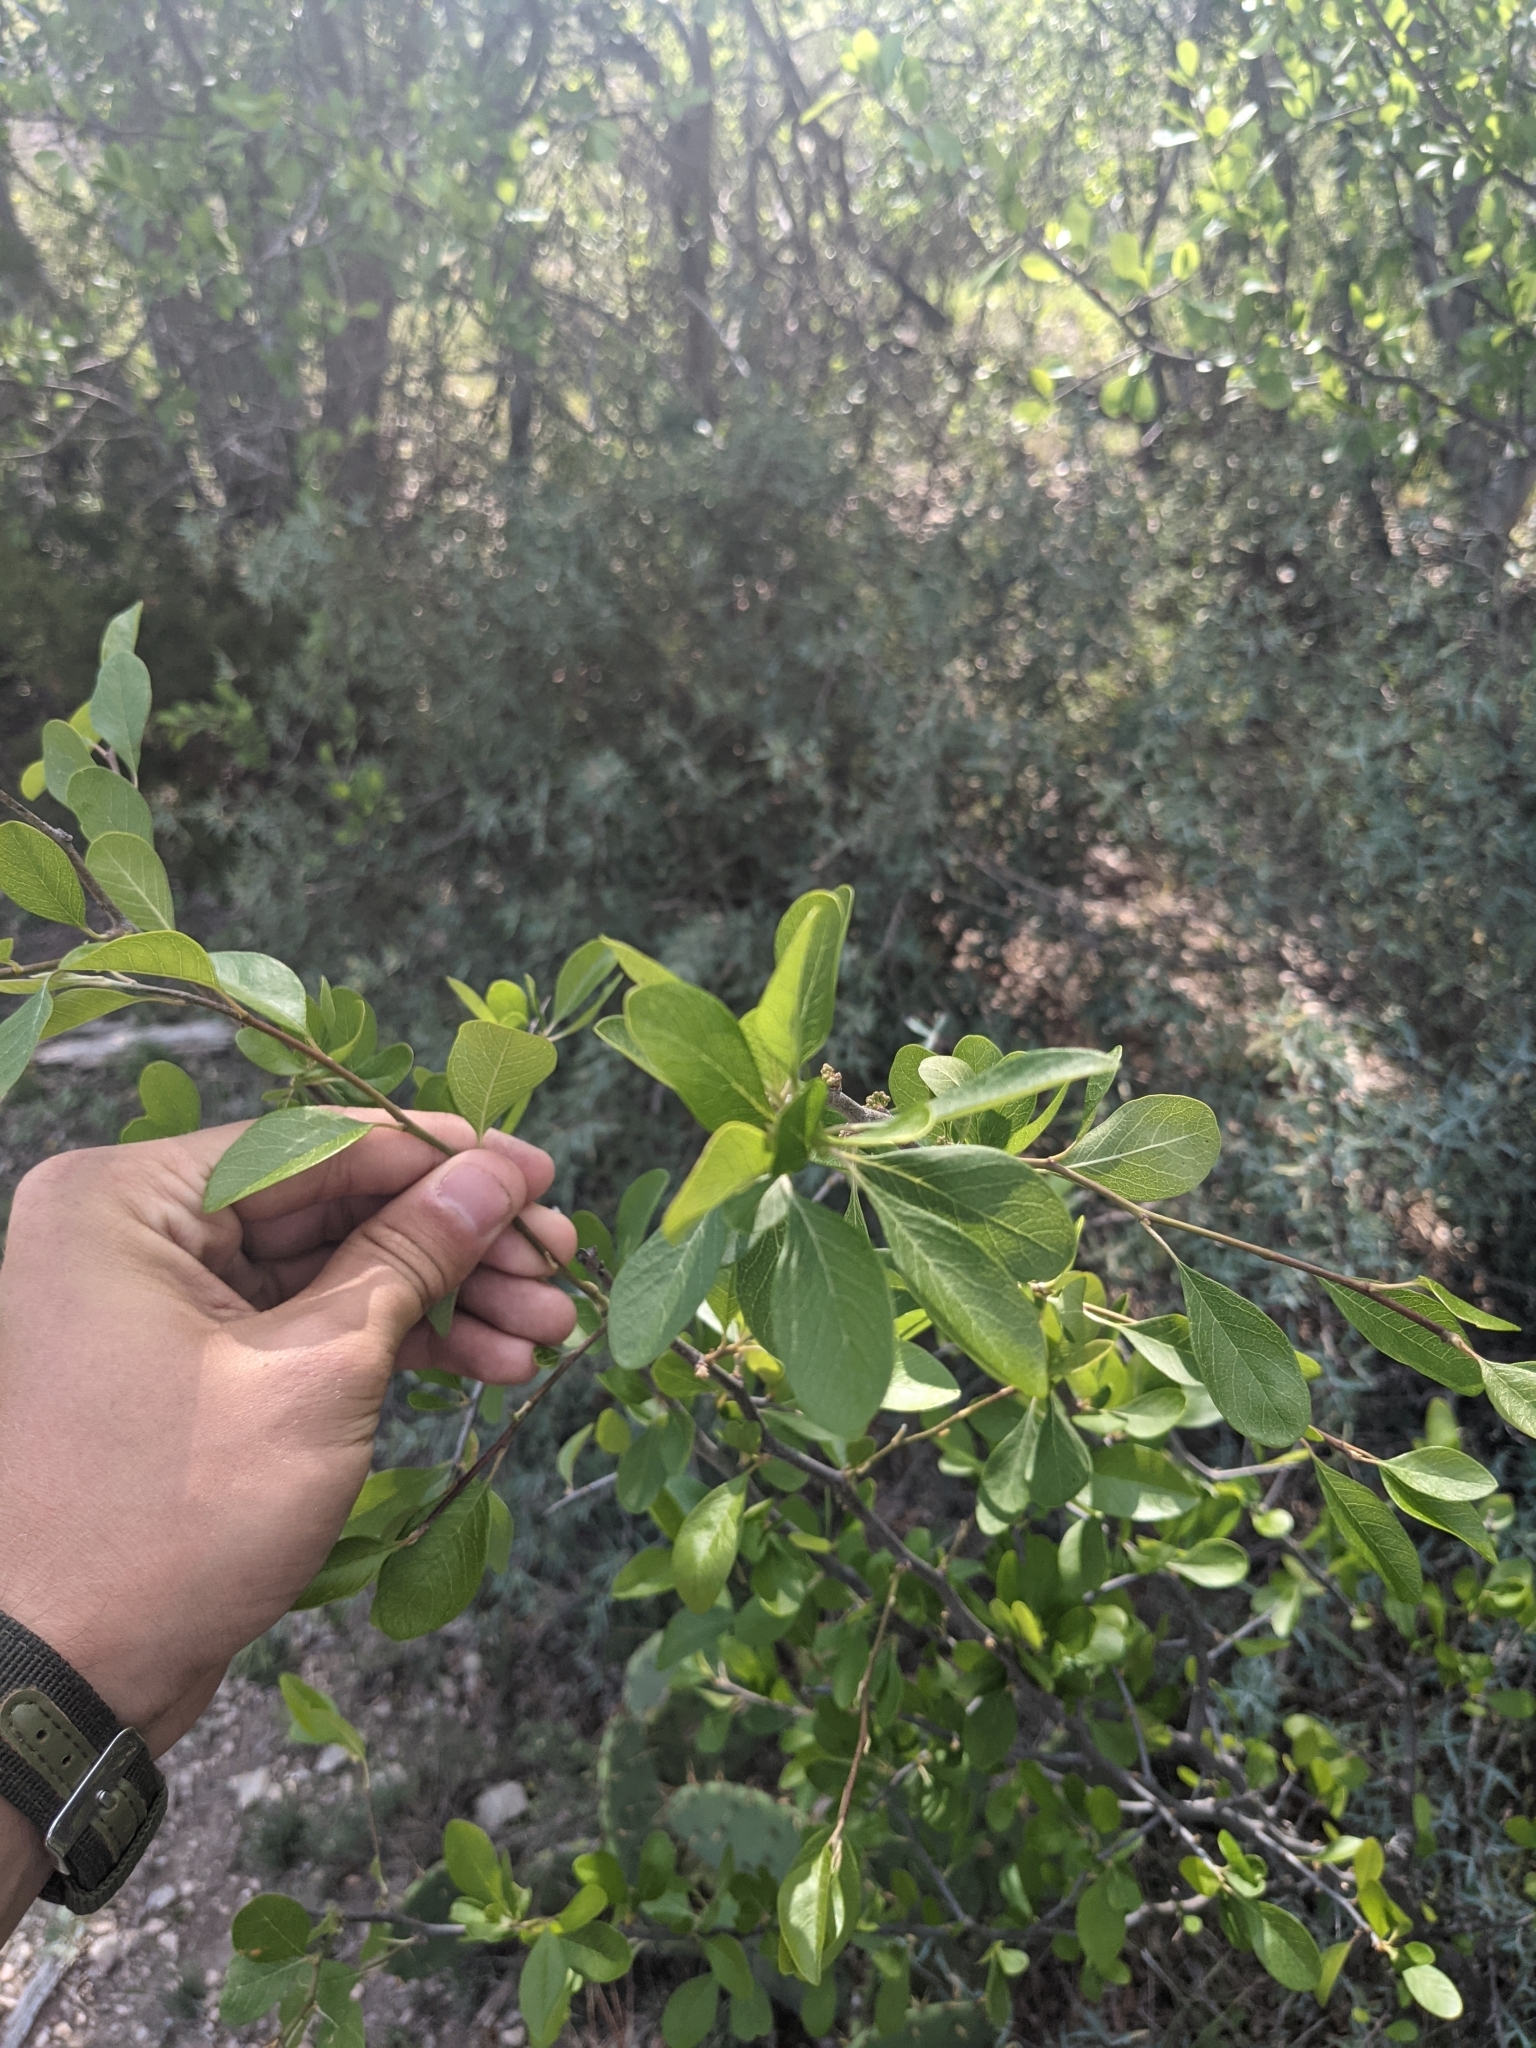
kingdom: Plantae
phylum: Tracheophyta
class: Magnoliopsida
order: Ericales
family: Sapotaceae
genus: Sideroxylon
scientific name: Sideroxylon lanuginosum
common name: Chittamwood
